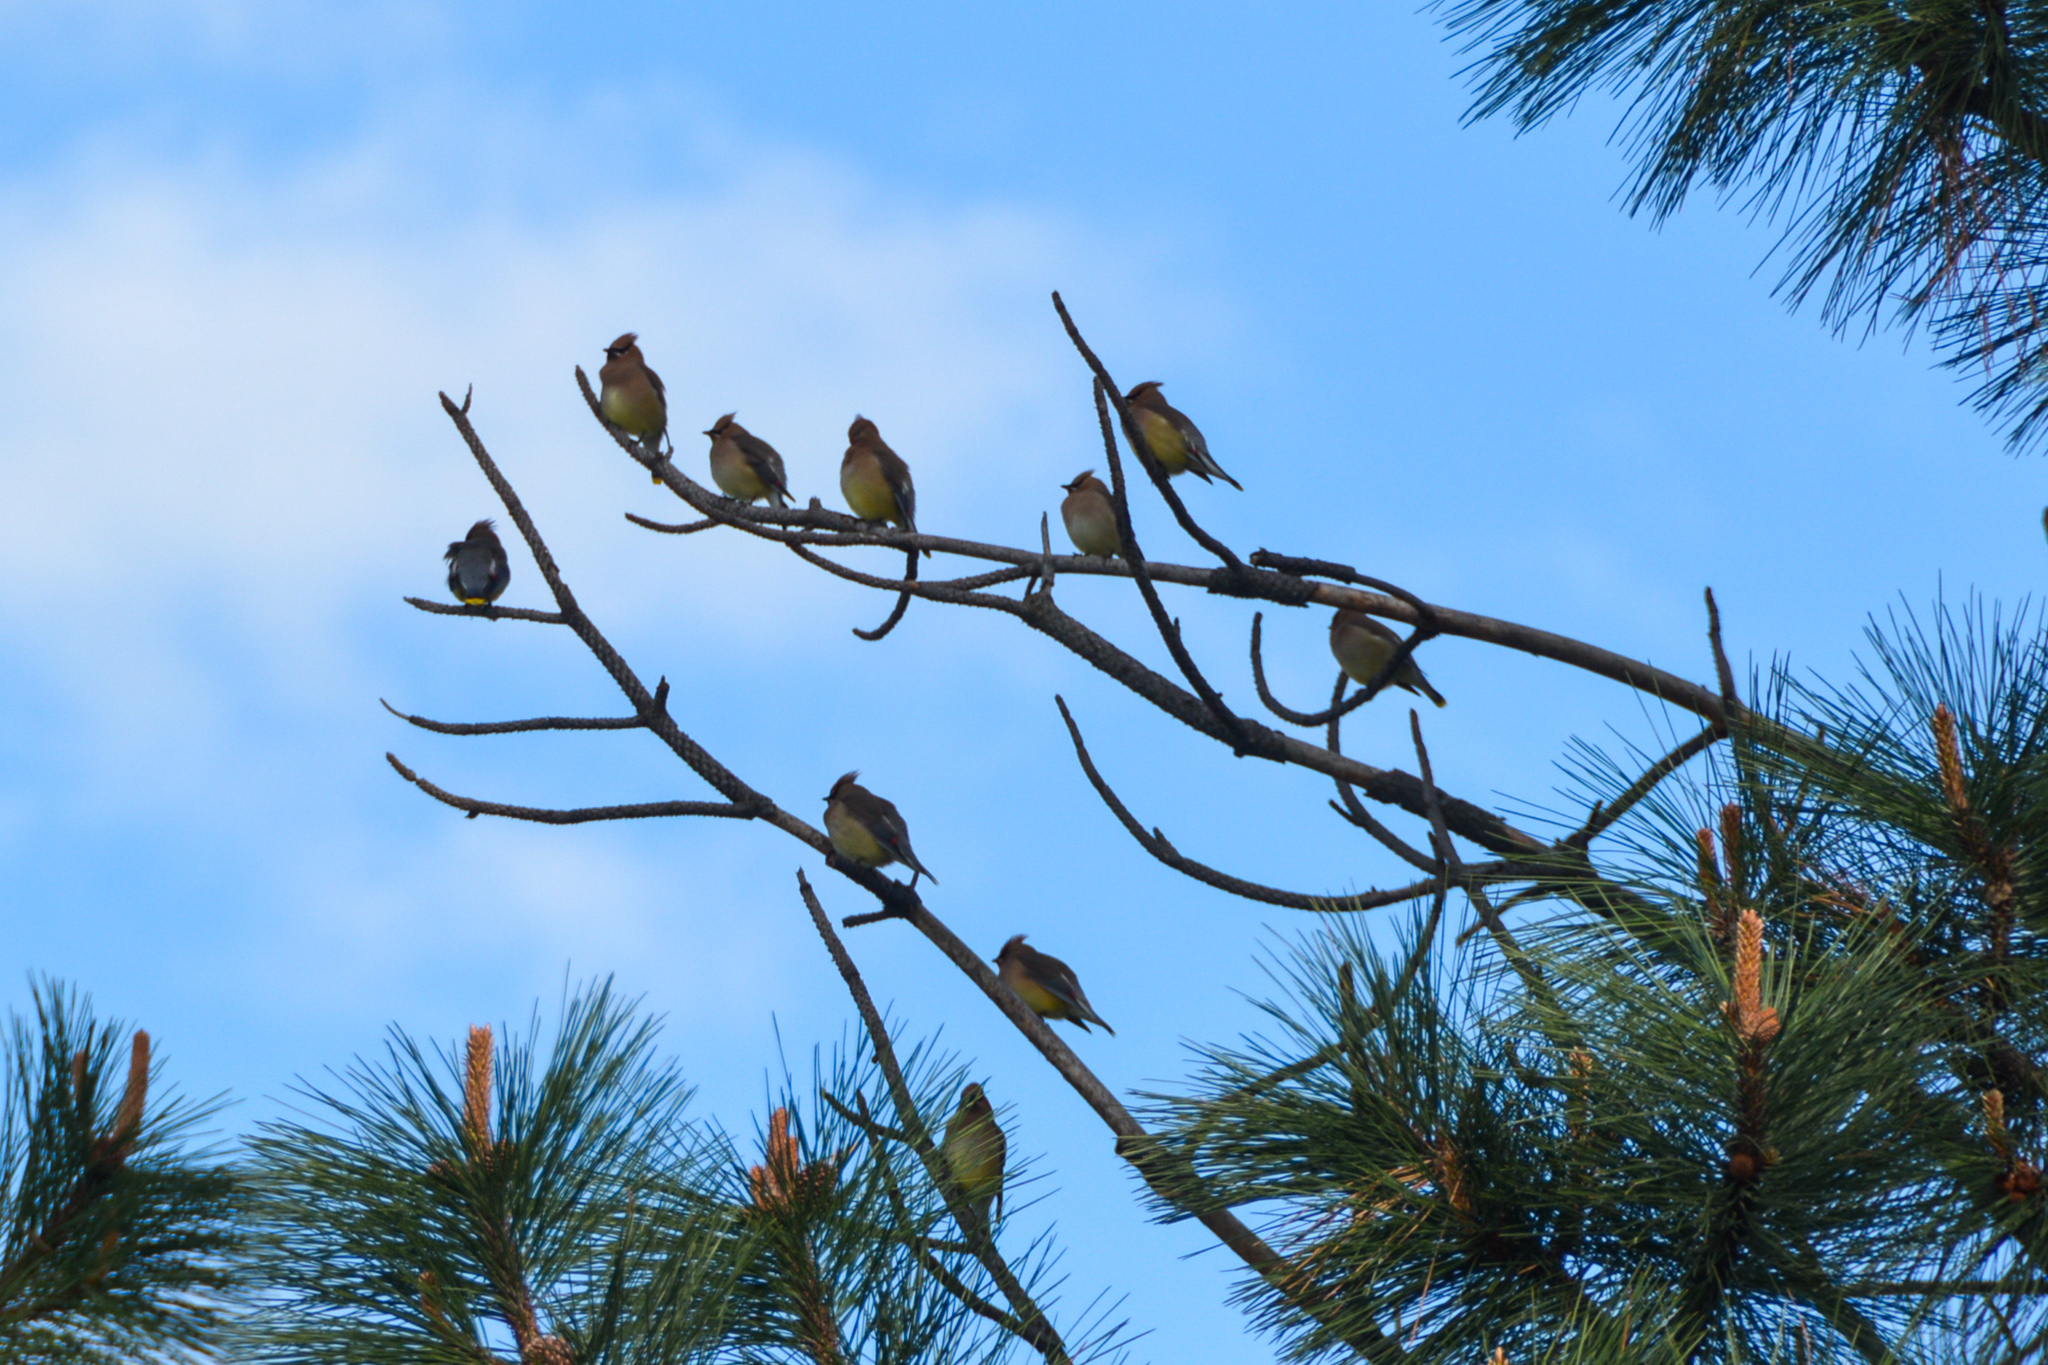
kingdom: Animalia
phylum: Chordata
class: Aves
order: Passeriformes
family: Bombycillidae
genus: Bombycilla
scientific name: Bombycilla cedrorum
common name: Cedar waxwing
